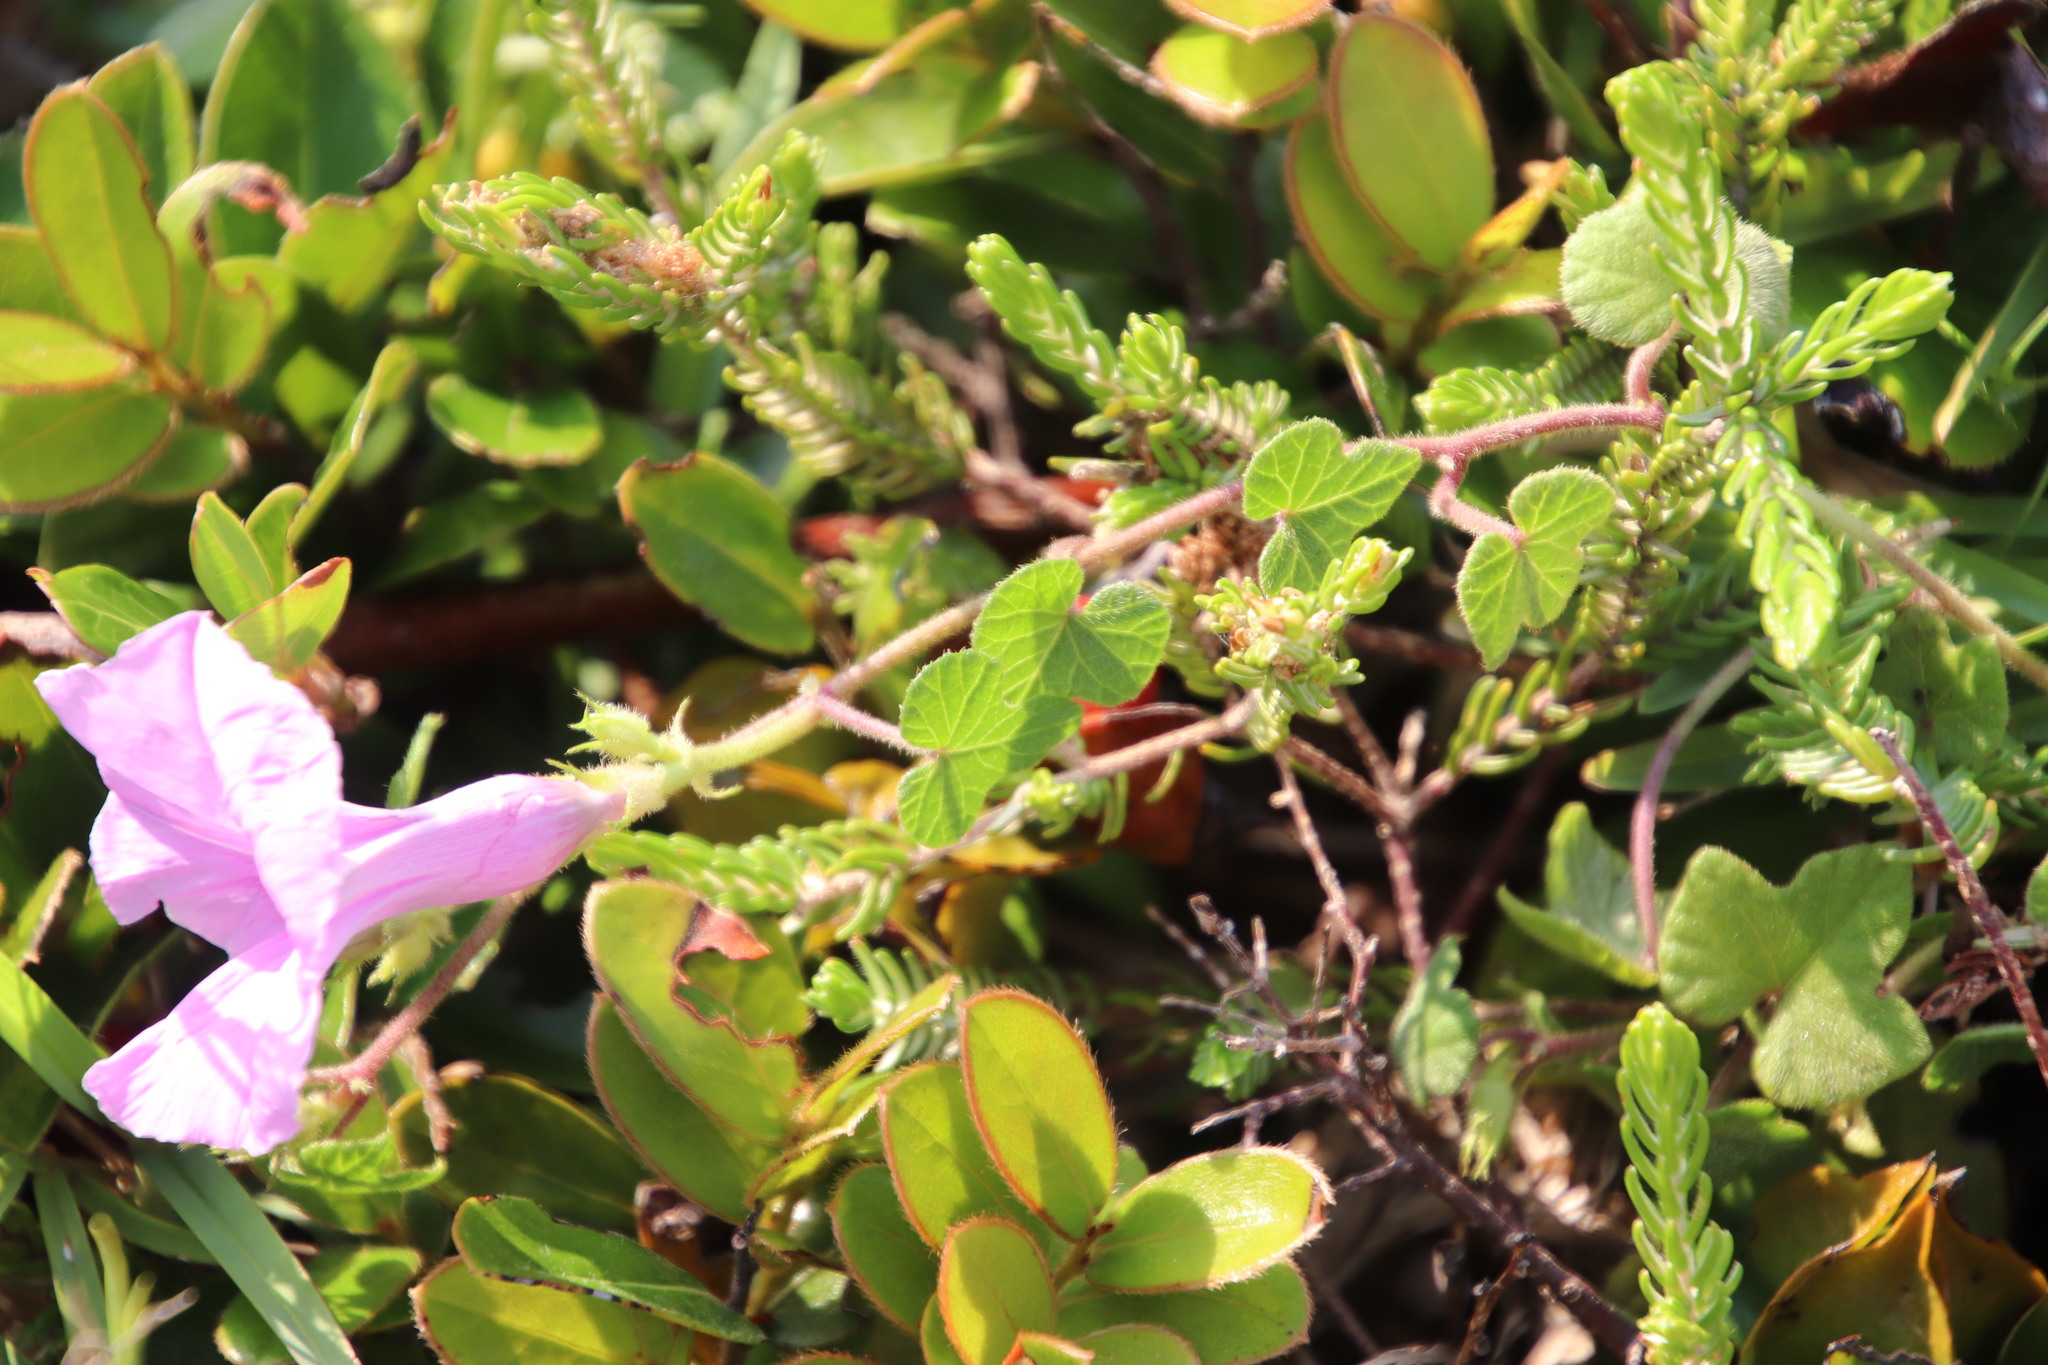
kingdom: Plantae
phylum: Tracheophyta
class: Magnoliopsida
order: Solanales
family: Convolvulaceae
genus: Ipomoea
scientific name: Ipomoea ficifolia
